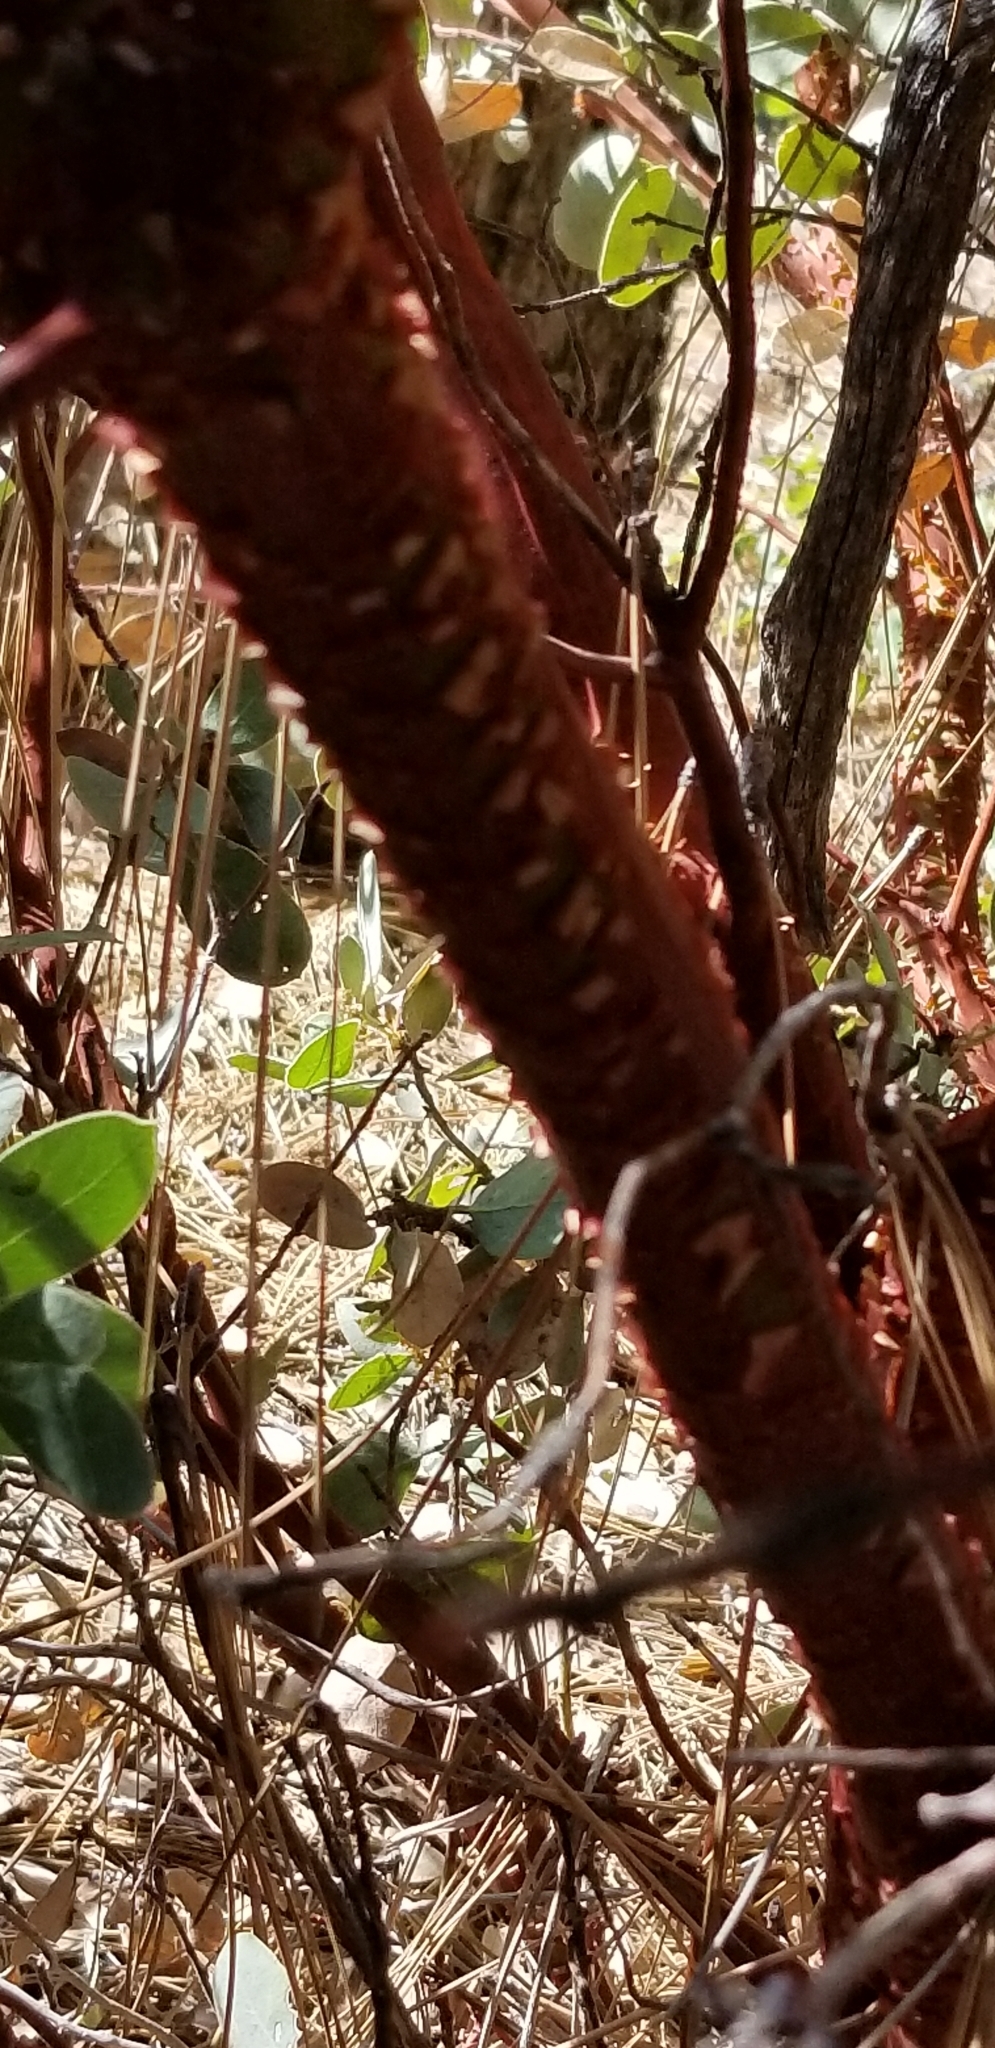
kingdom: Plantae
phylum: Tracheophyta
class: Magnoliopsida
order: Ericales
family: Ericaceae
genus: Arctostaphylos
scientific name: Arctostaphylos pringlei
